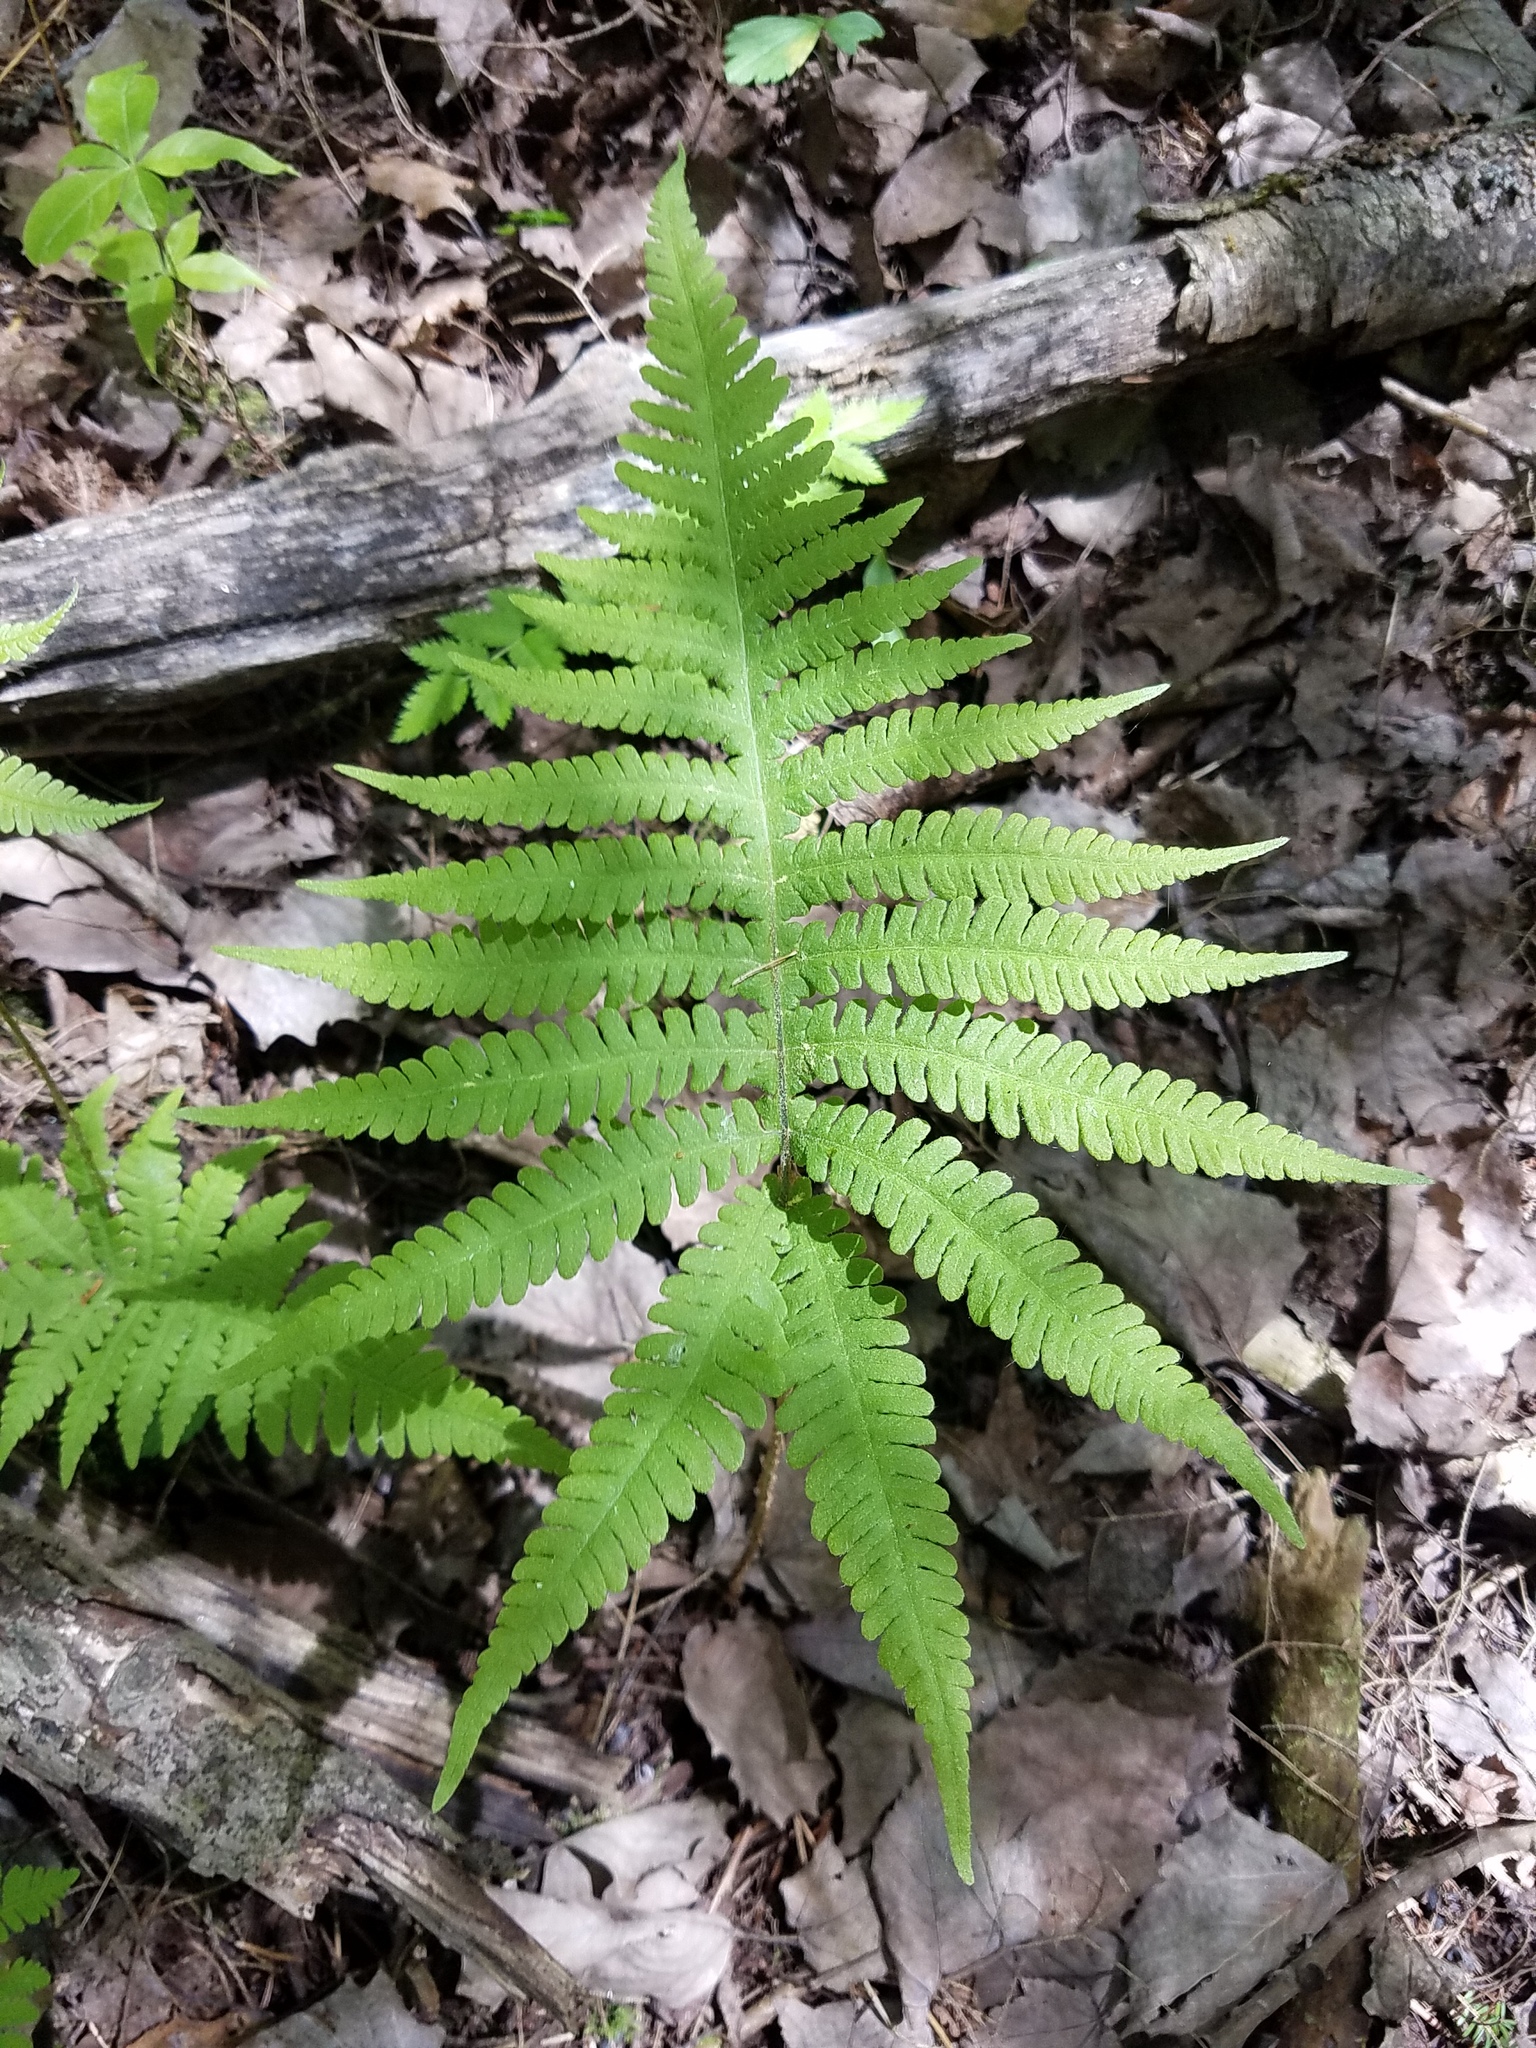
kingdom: Plantae
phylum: Tracheophyta
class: Polypodiopsida
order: Polypodiales
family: Thelypteridaceae
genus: Phegopteris
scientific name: Phegopteris connectilis
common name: Beech fern
